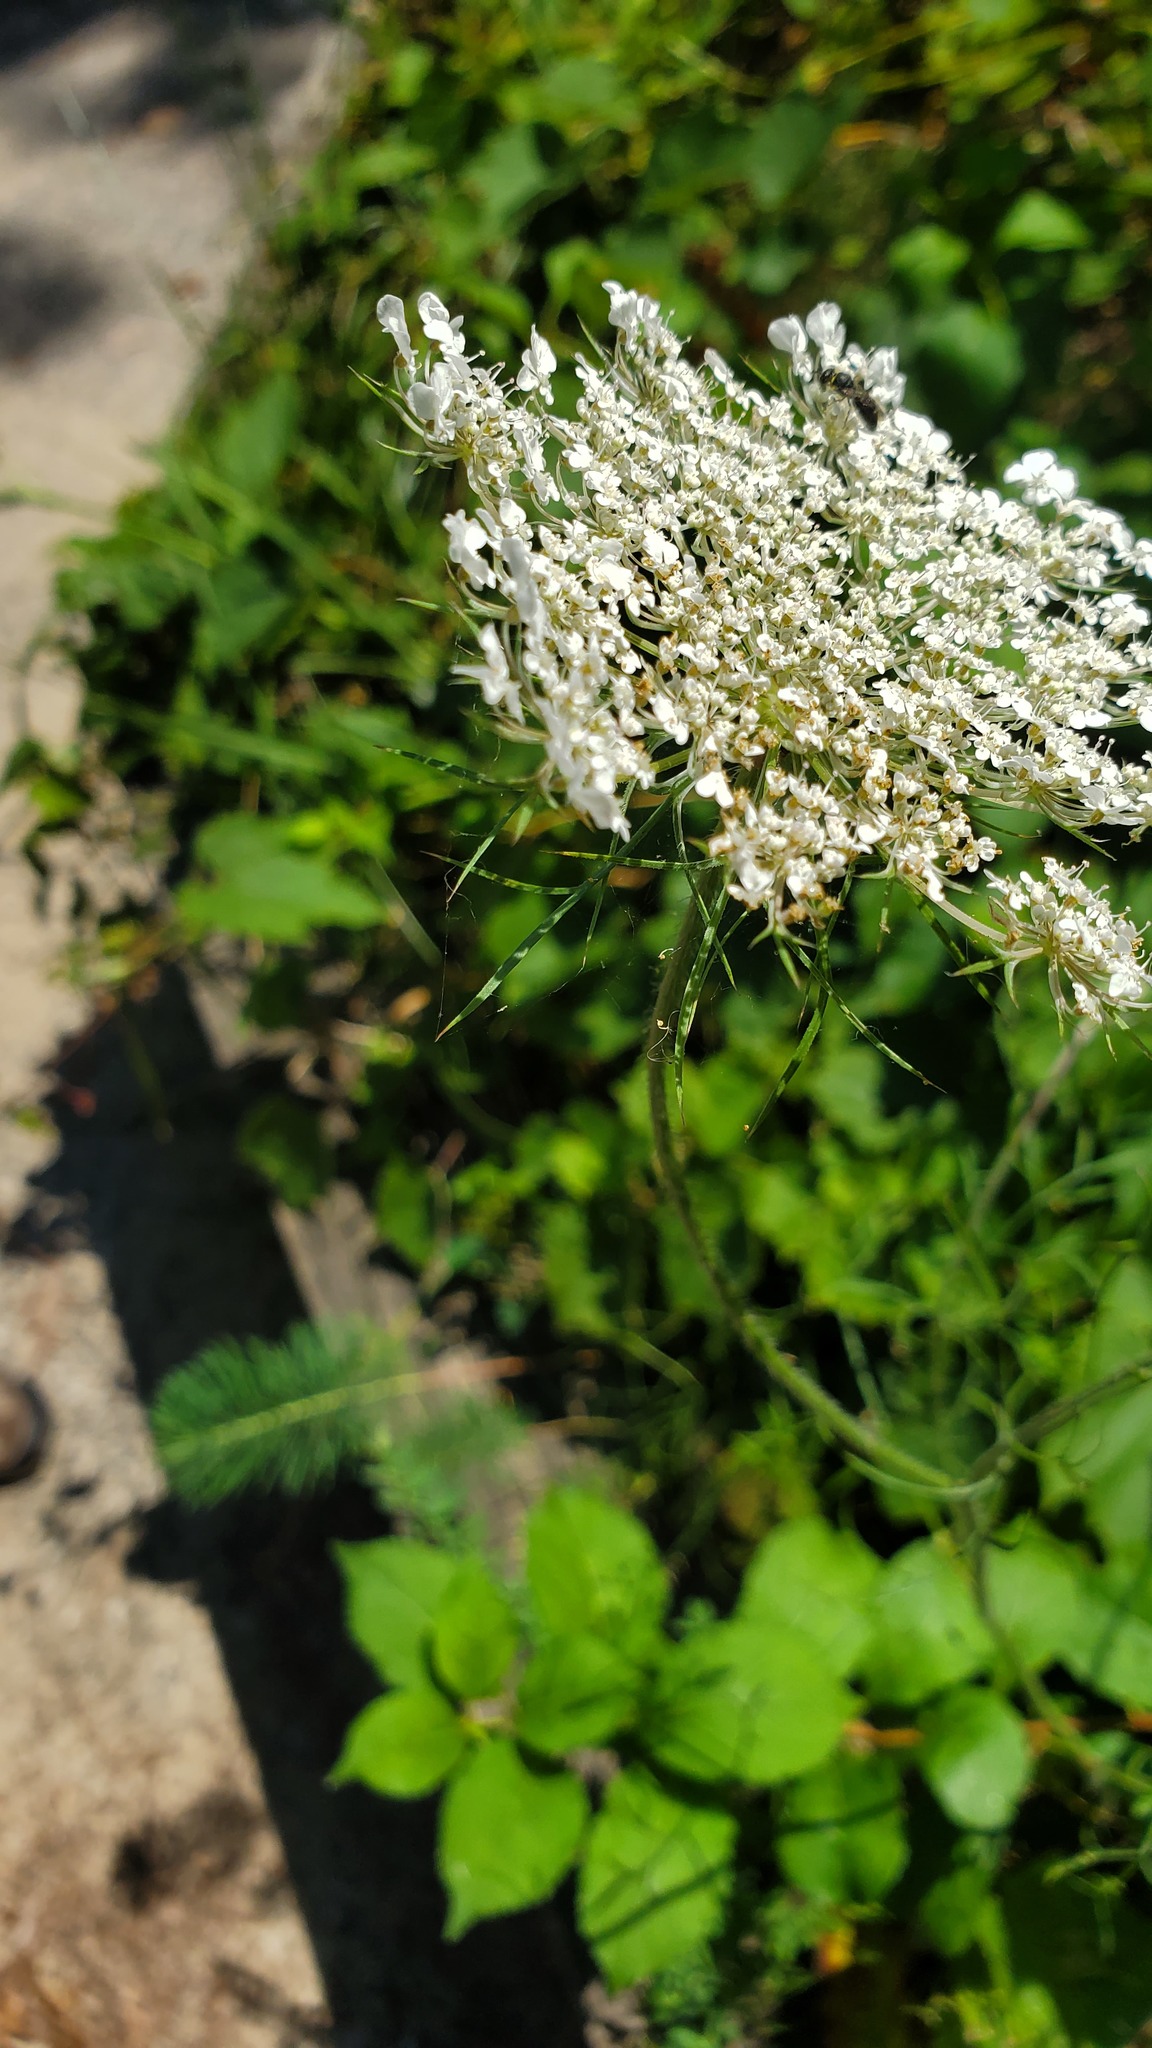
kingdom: Plantae
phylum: Tracheophyta
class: Magnoliopsida
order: Apiales
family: Apiaceae
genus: Daucus
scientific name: Daucus carota
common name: Wild carrot
